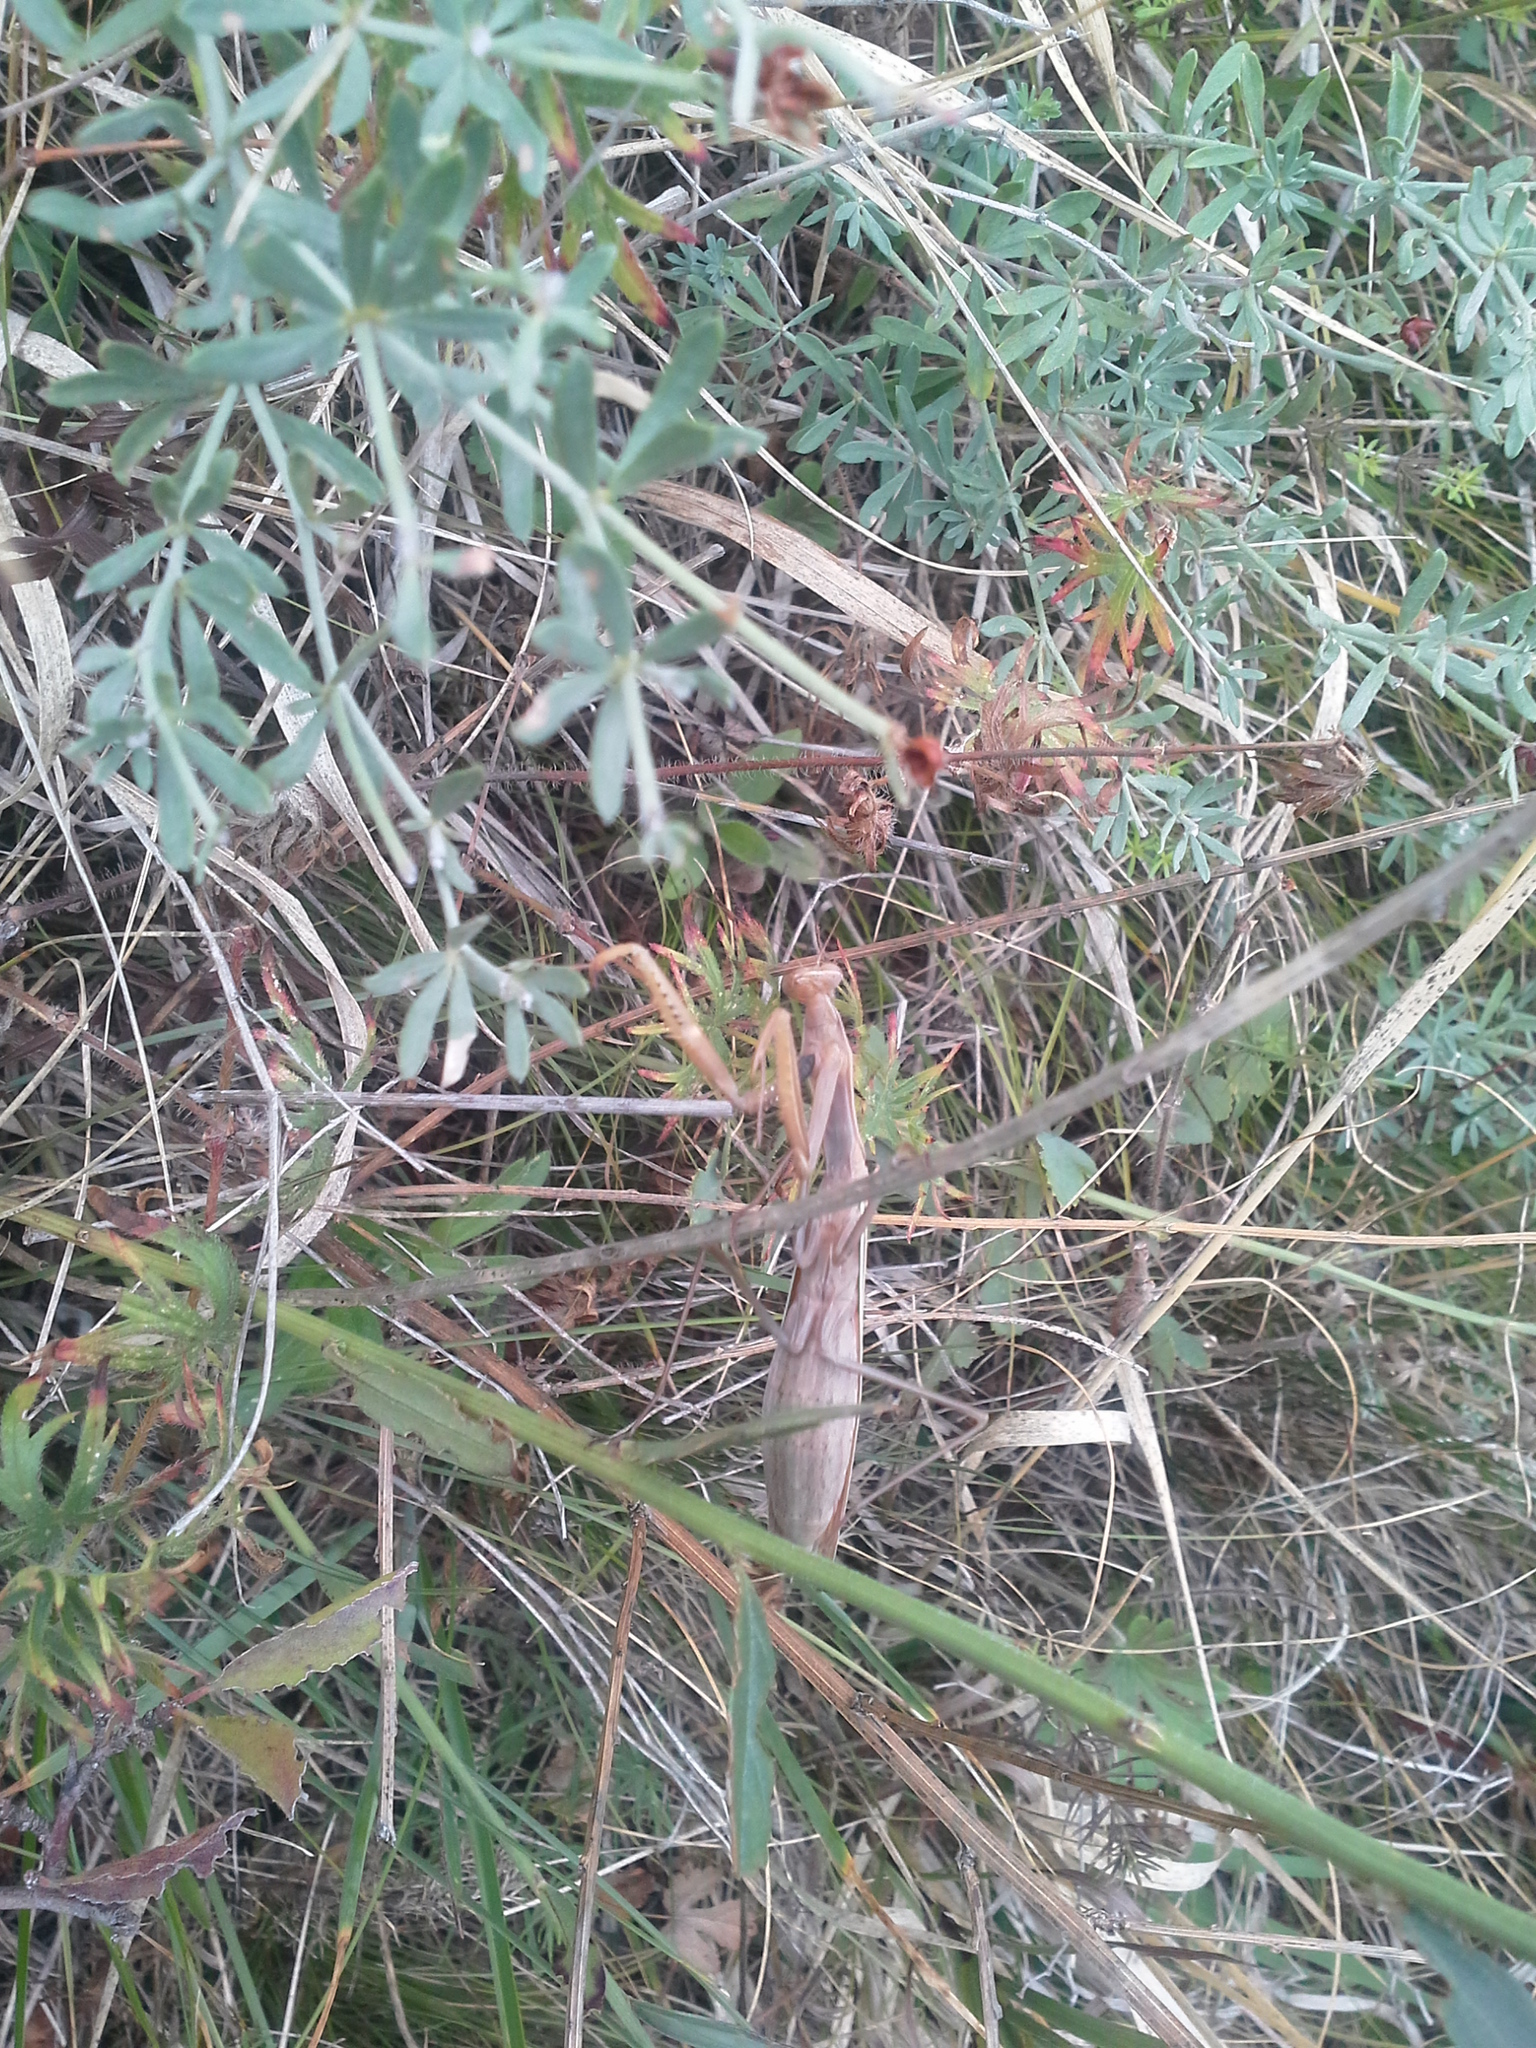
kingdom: Animalia
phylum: Arthropoda
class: Insecta
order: Mantodea
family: Mantidae
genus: Mantis
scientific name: Mantis religiosa
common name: Praying mantis
